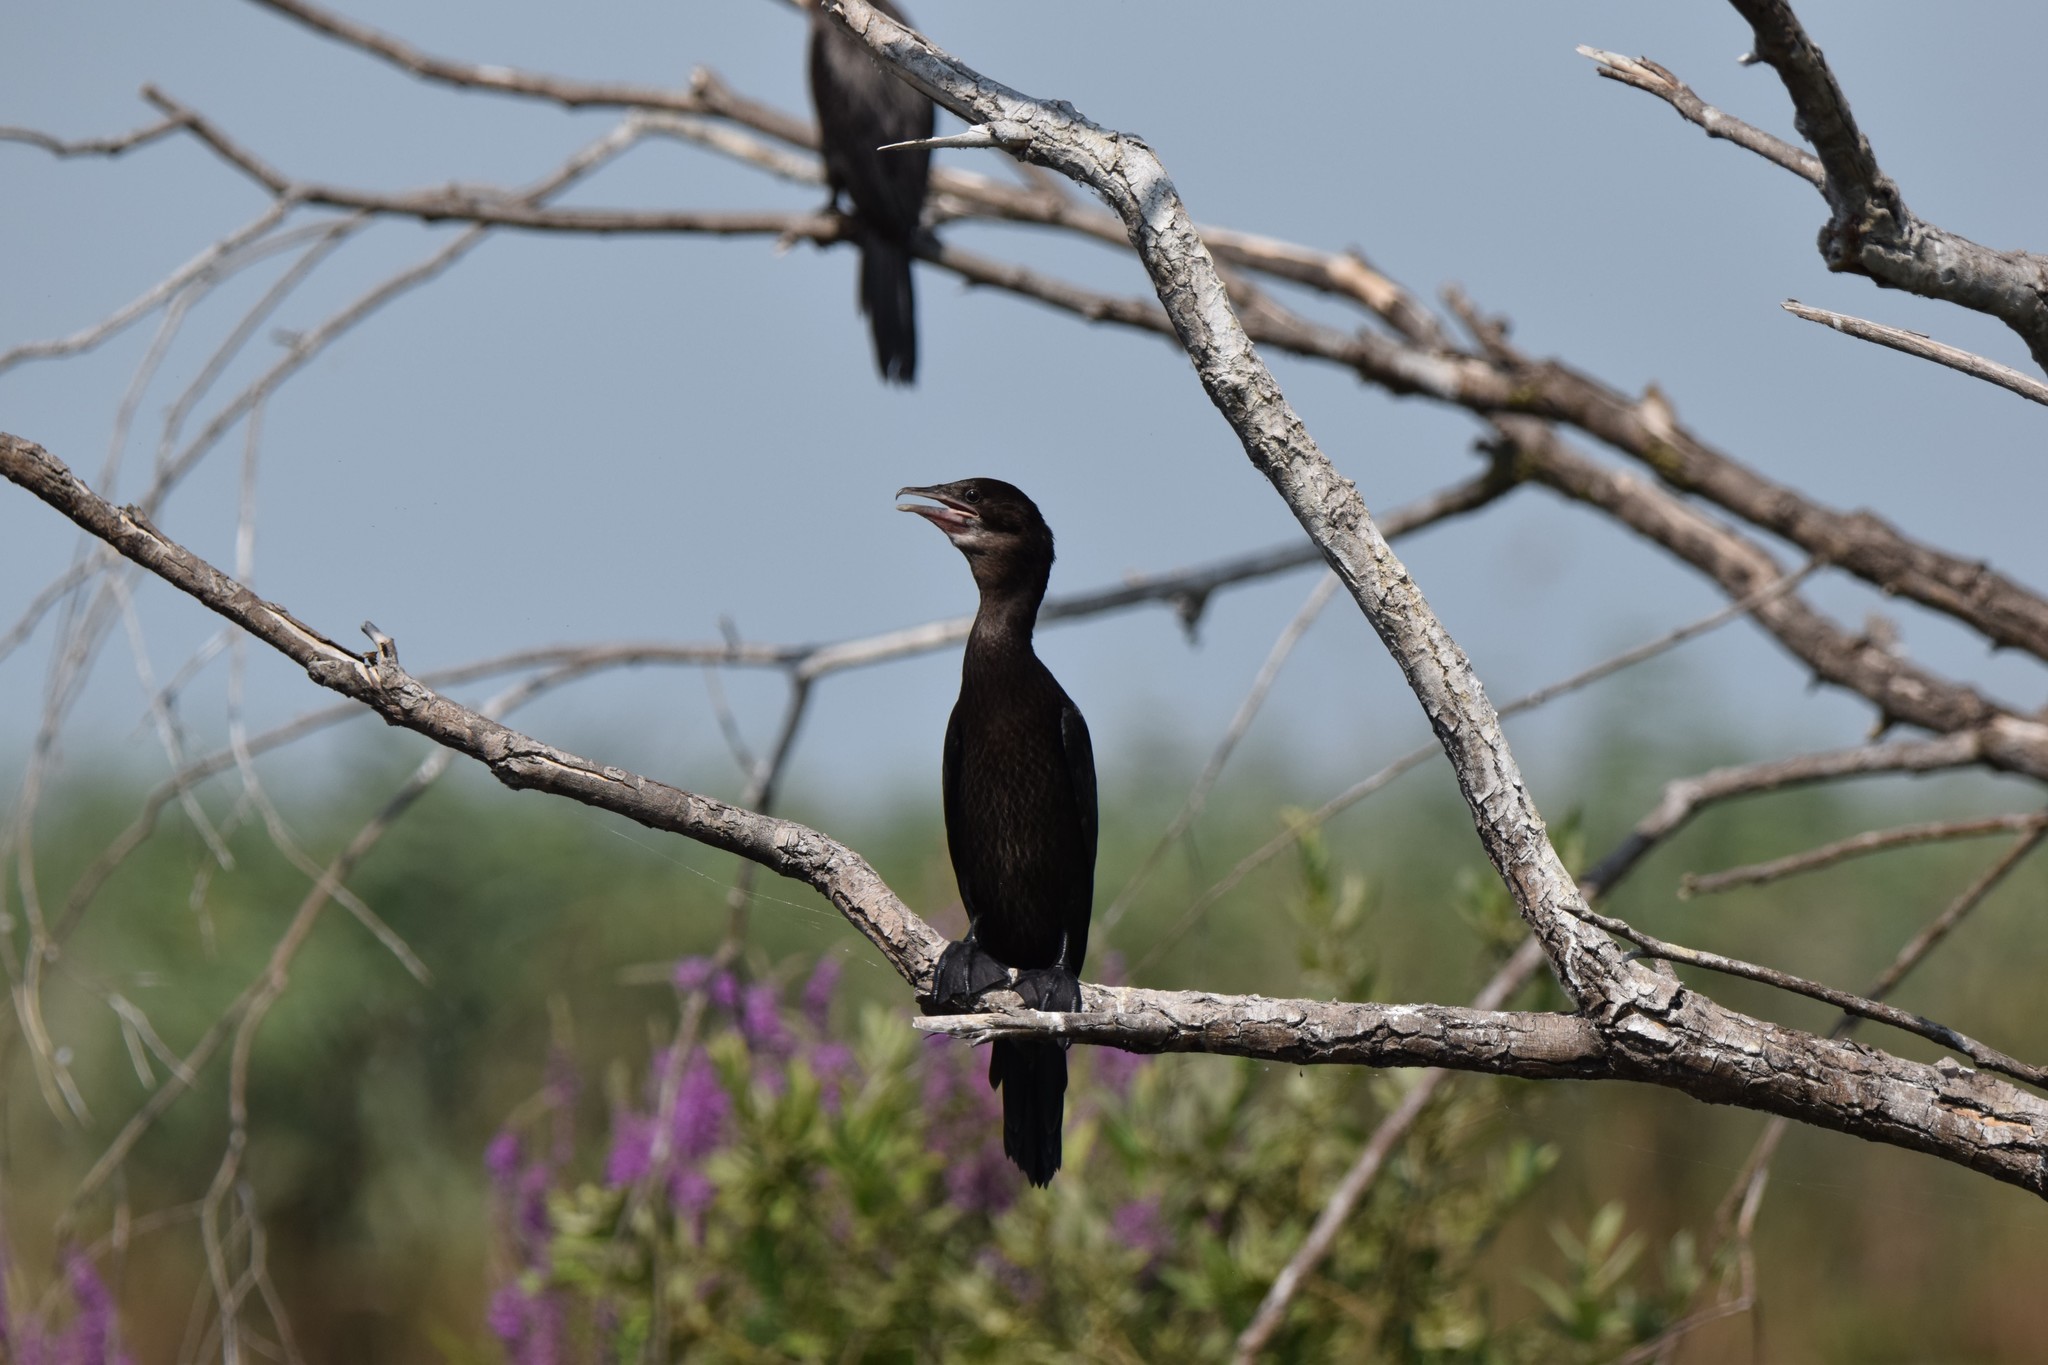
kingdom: Animalia
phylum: Chordata
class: Aves
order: Suliformes
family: Phalacrocoracidae
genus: Microcarbo
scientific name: Microcarbo pygmaeus
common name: Pygmy cormorant
